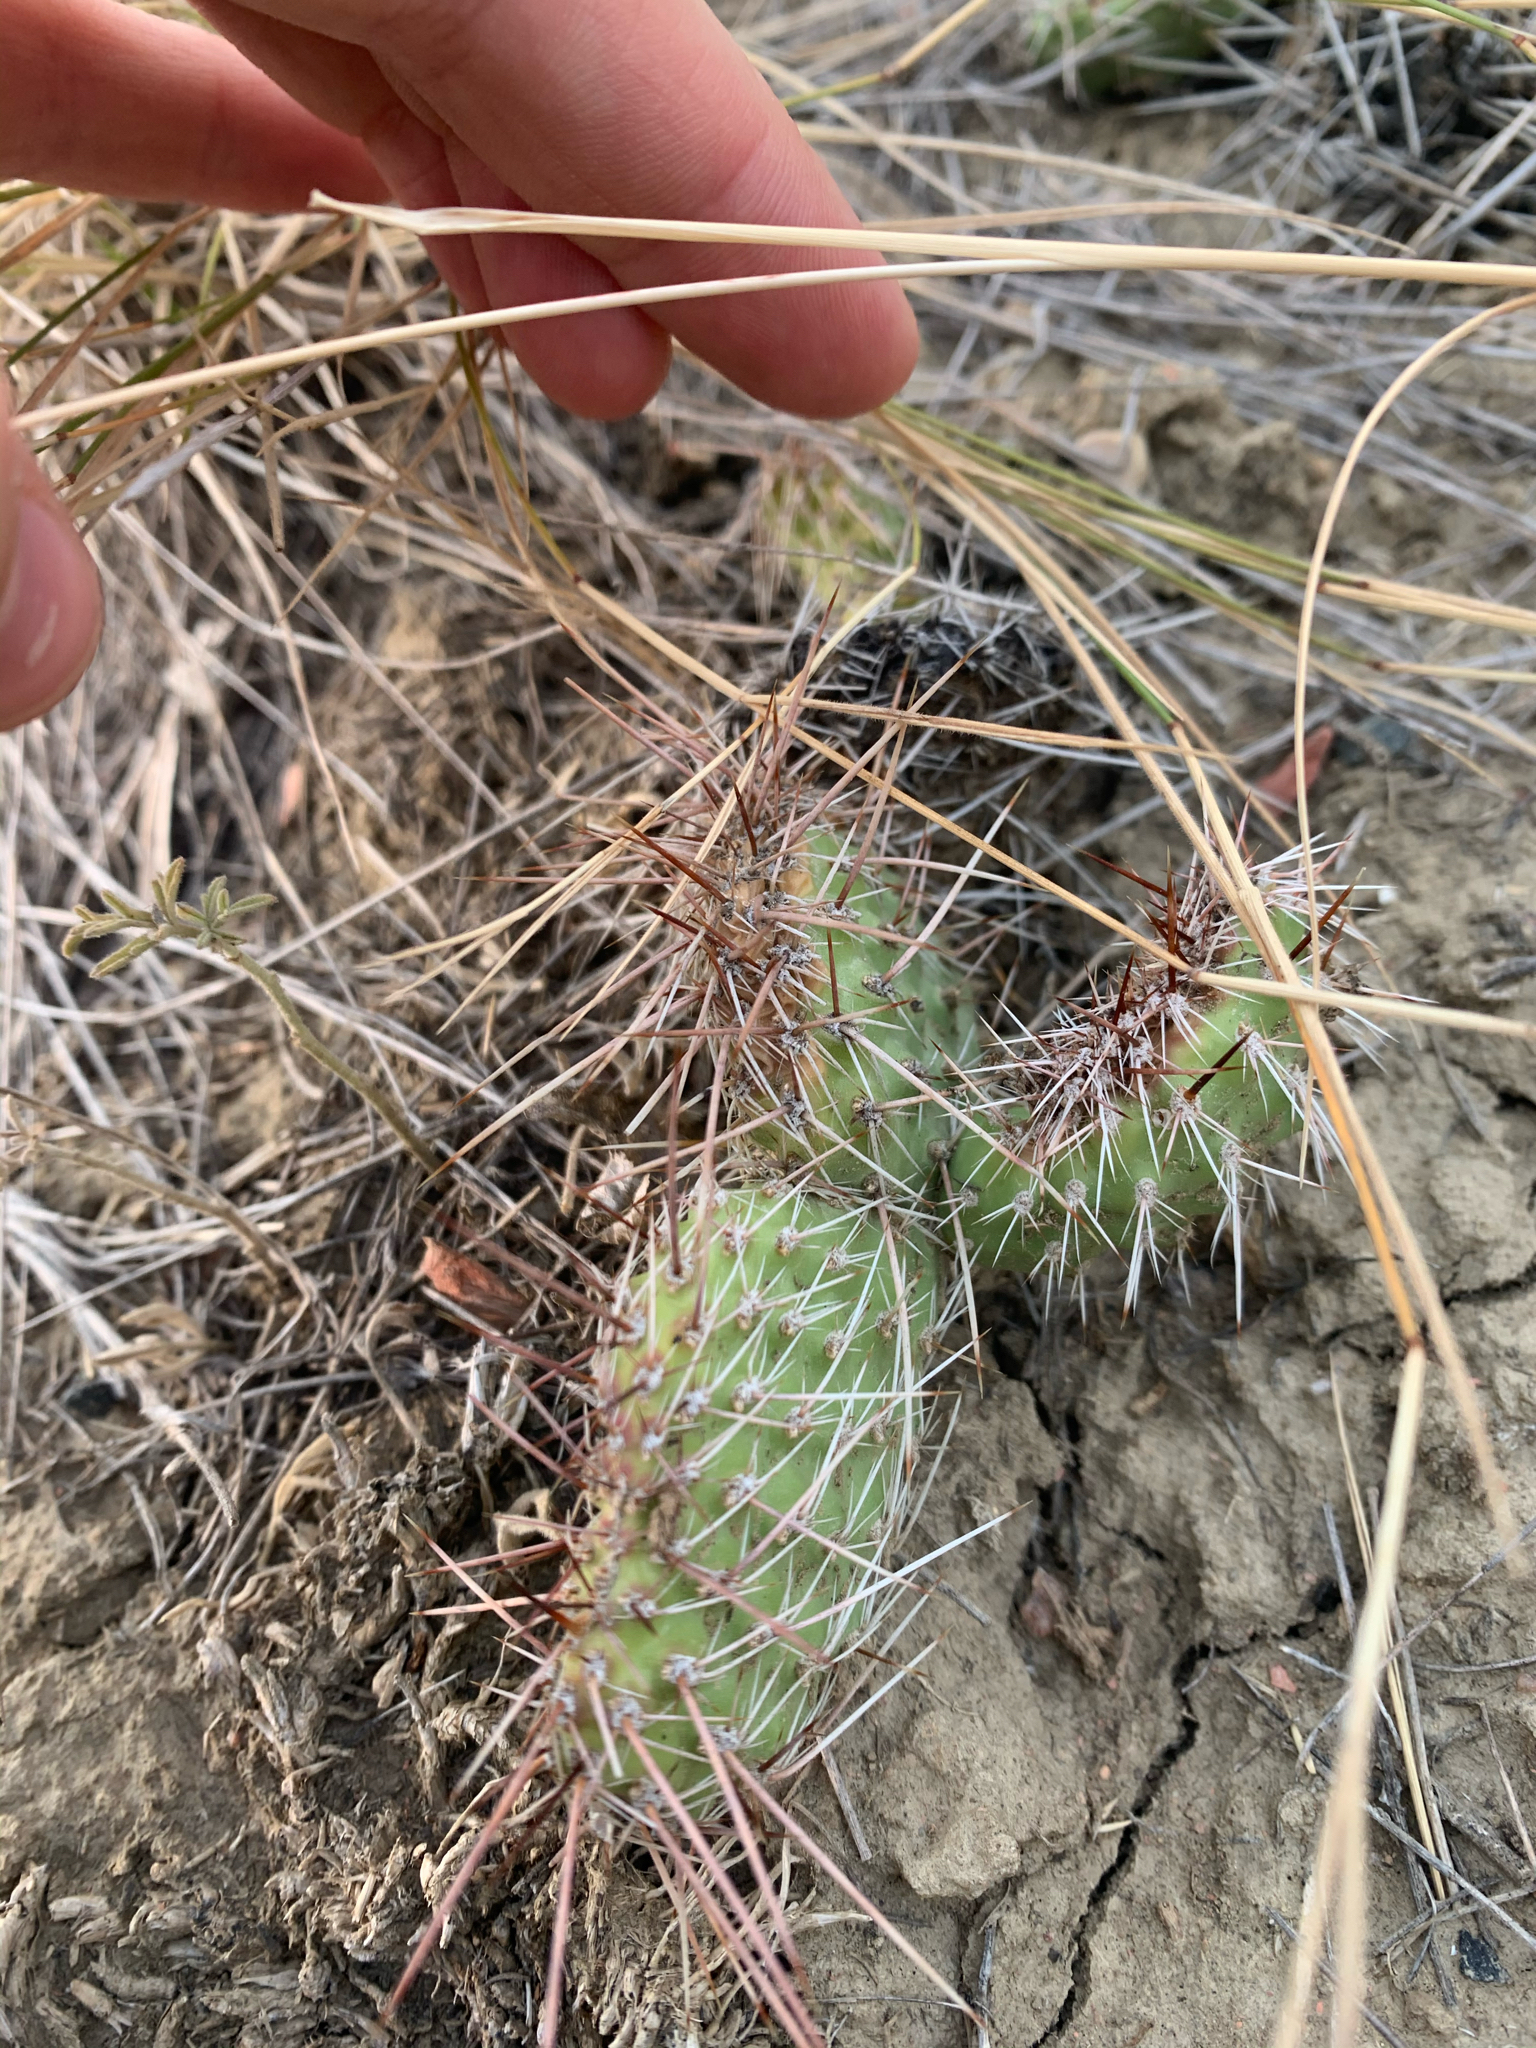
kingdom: Plantae
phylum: Tracheophyta
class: Magnoliopsida
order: Caryophyllales
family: Cactaceae
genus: Opuntia
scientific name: Opuntia polyacantha
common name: Plains prickly-pear
